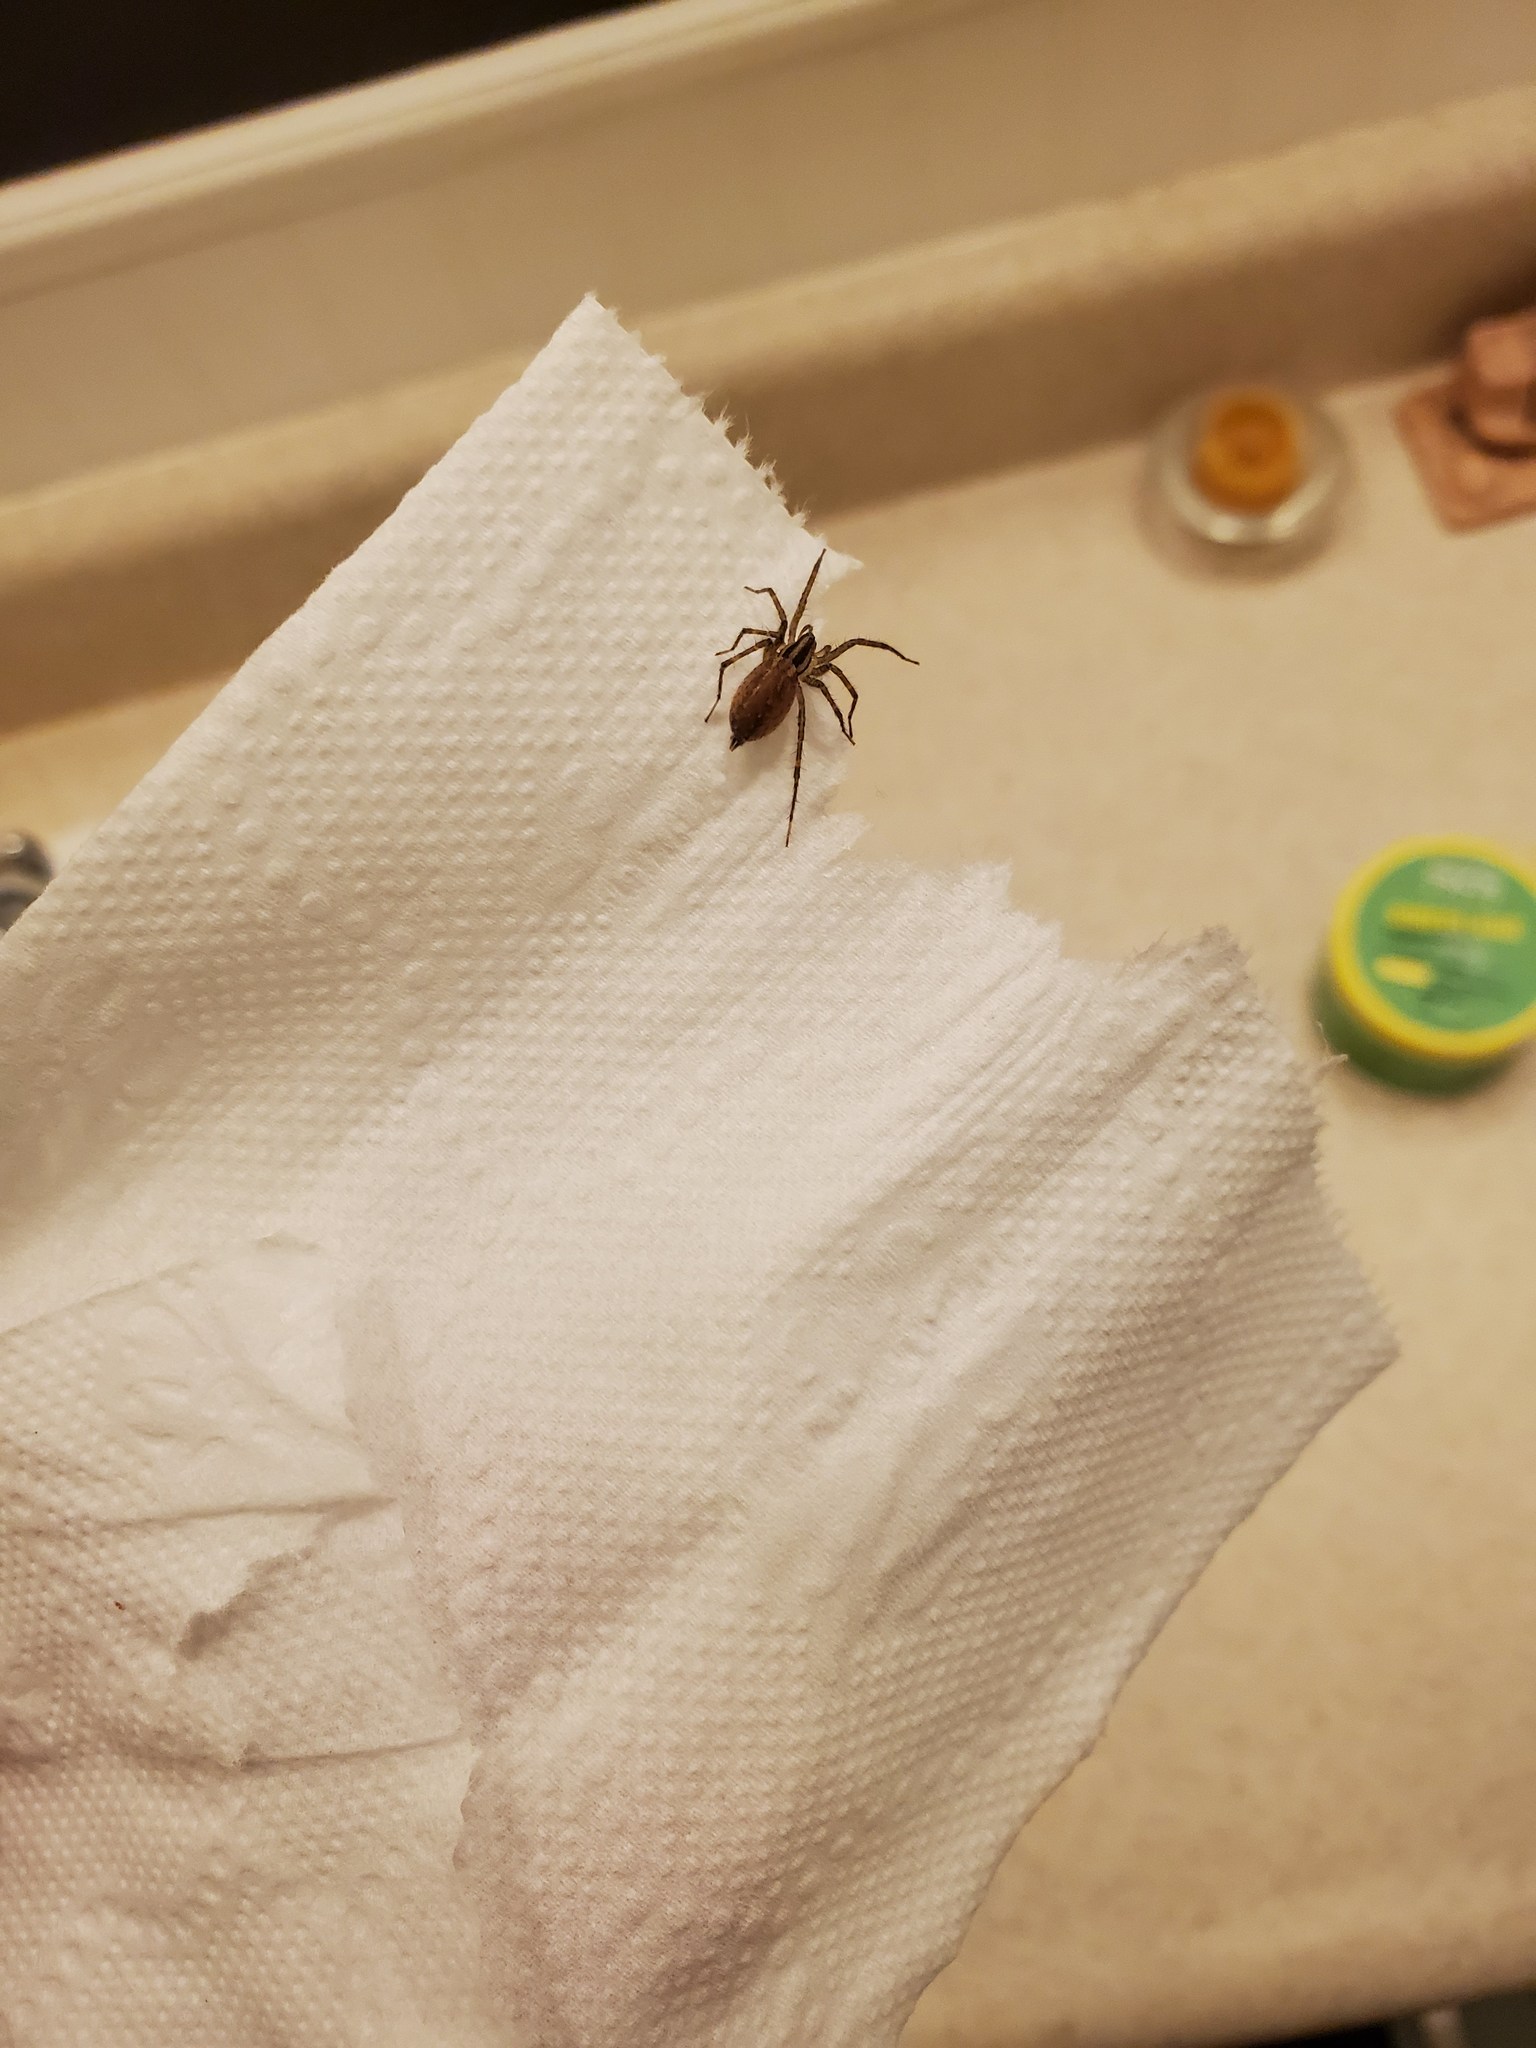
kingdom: Animalia
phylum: Arthropoda
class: Arachnida
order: Araneae
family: Agelenidae
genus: Agelenopsis
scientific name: Agelenopsis
